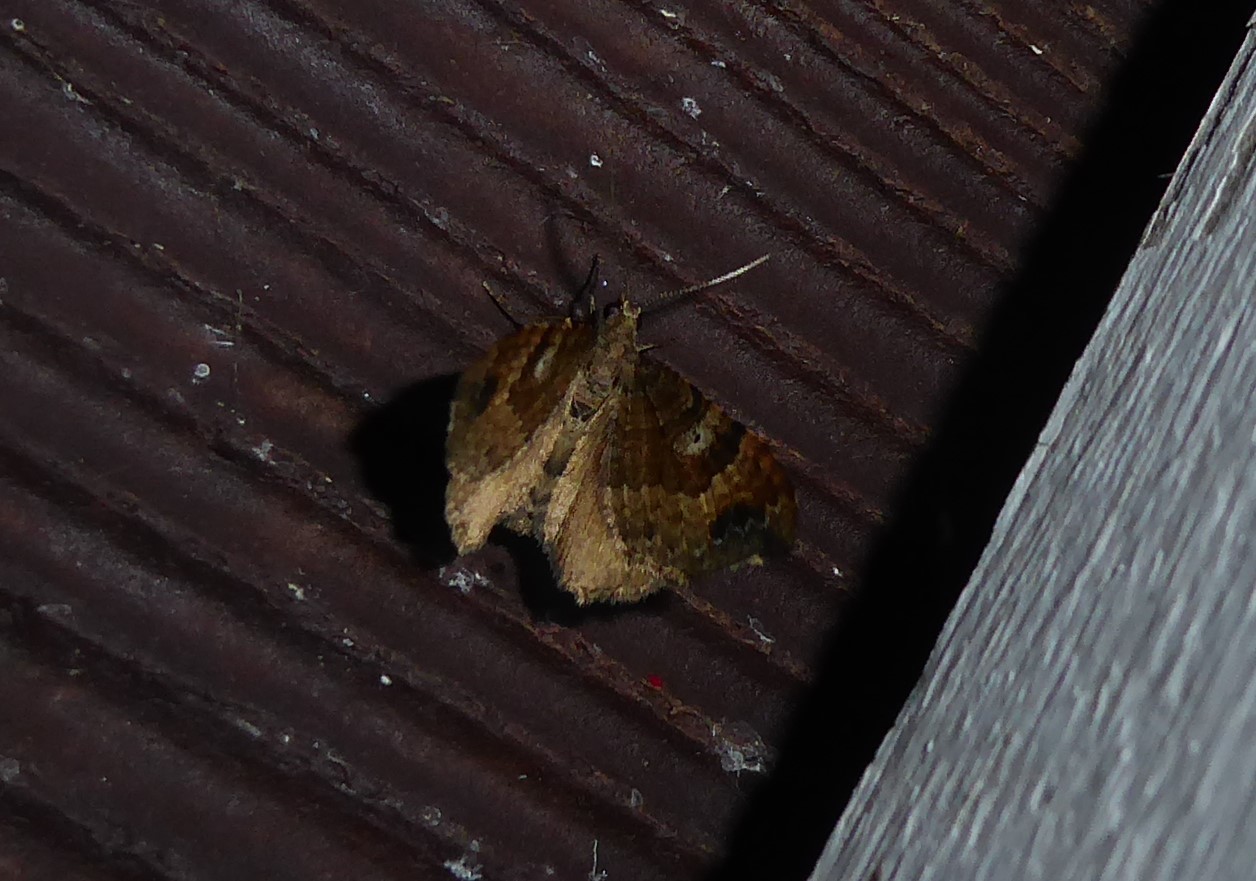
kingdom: Animalia
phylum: Arthropoda
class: Insecta
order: Lepidoptera
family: Geometridae
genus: Homodotis
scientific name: Homodotis megaspilata
